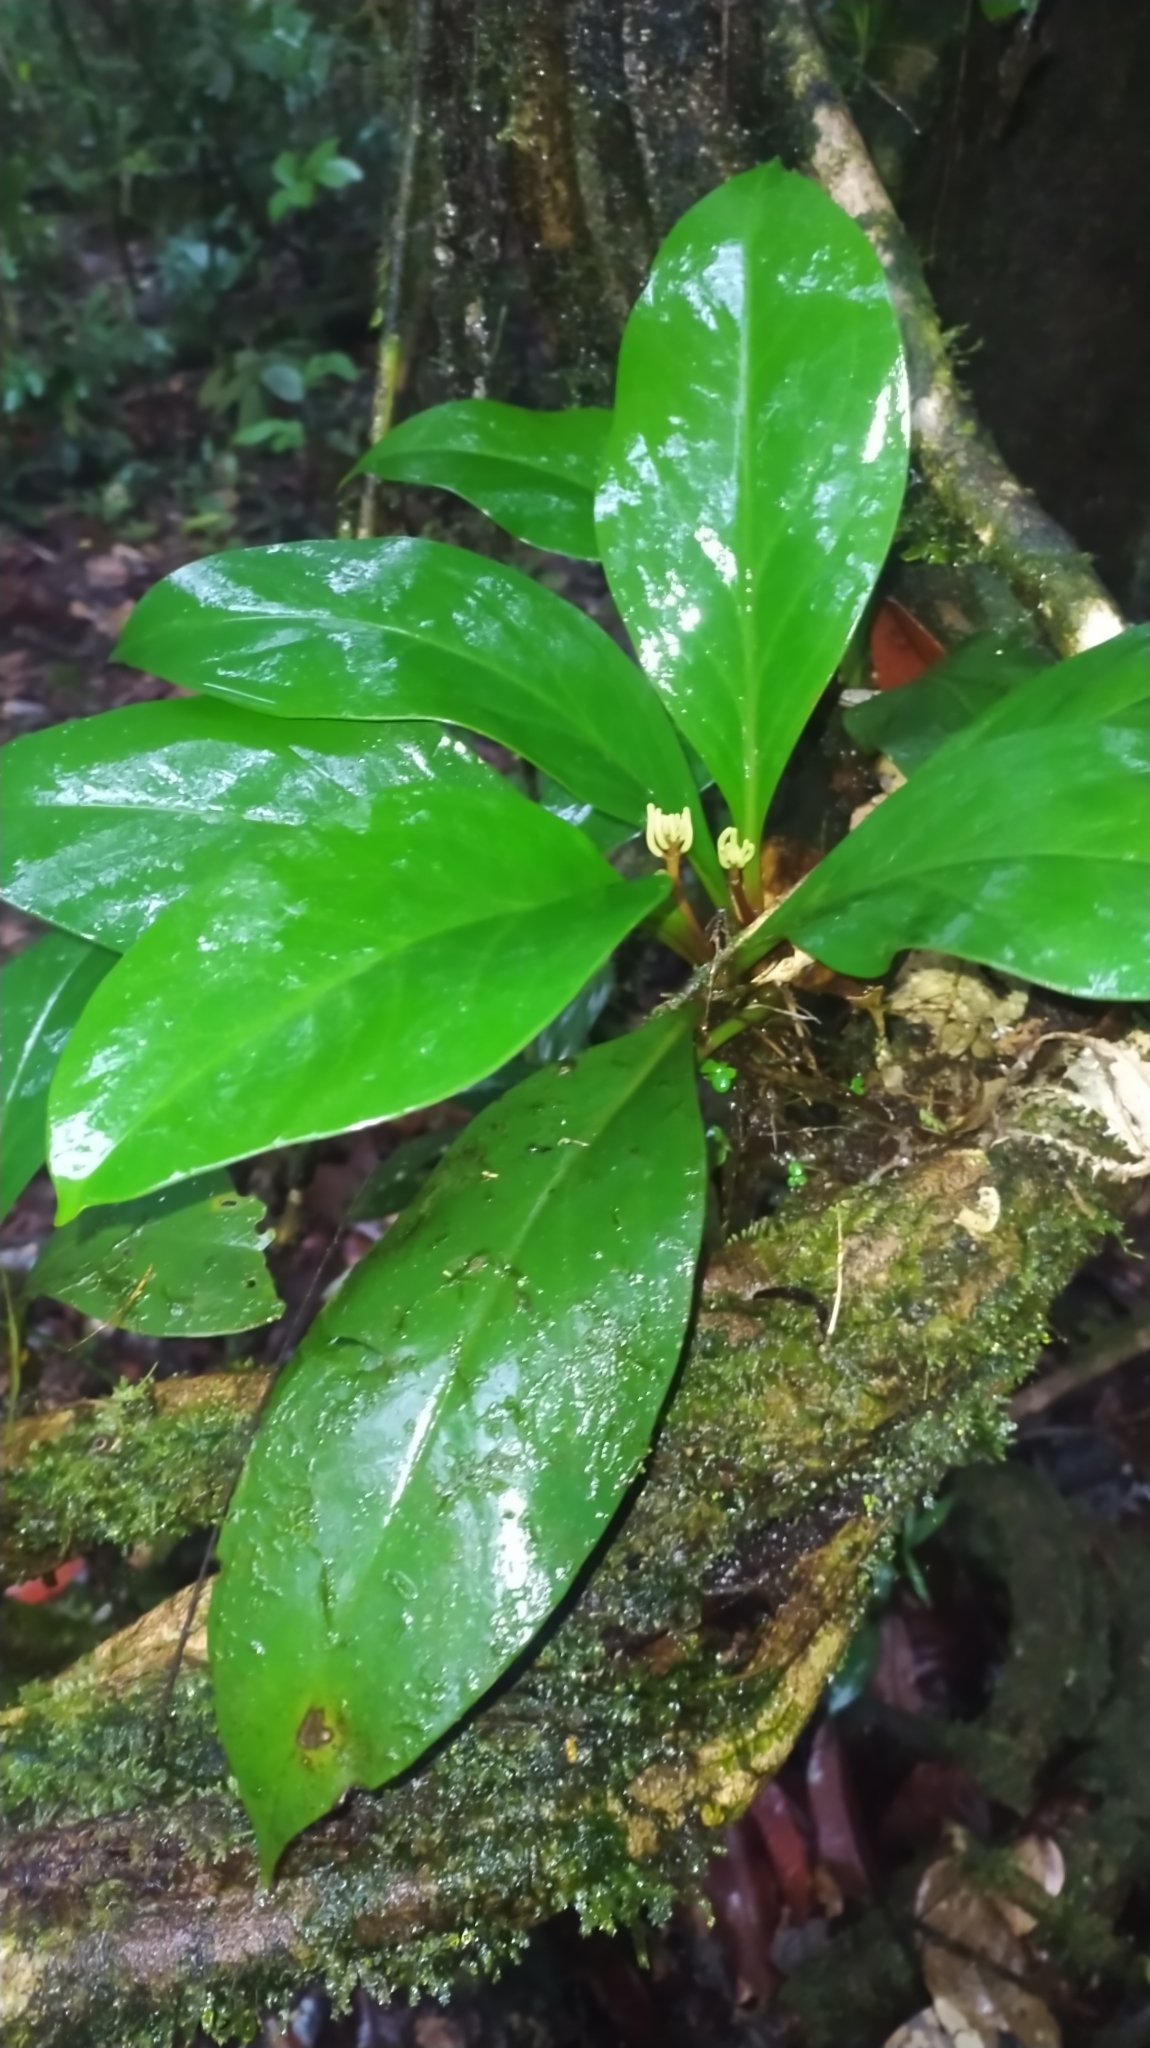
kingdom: Plantae
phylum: Tracheophyta
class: Magnoliopsida
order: Piperales
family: Piperaceae
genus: Peperomia
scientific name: Peperomia pernambucensis
